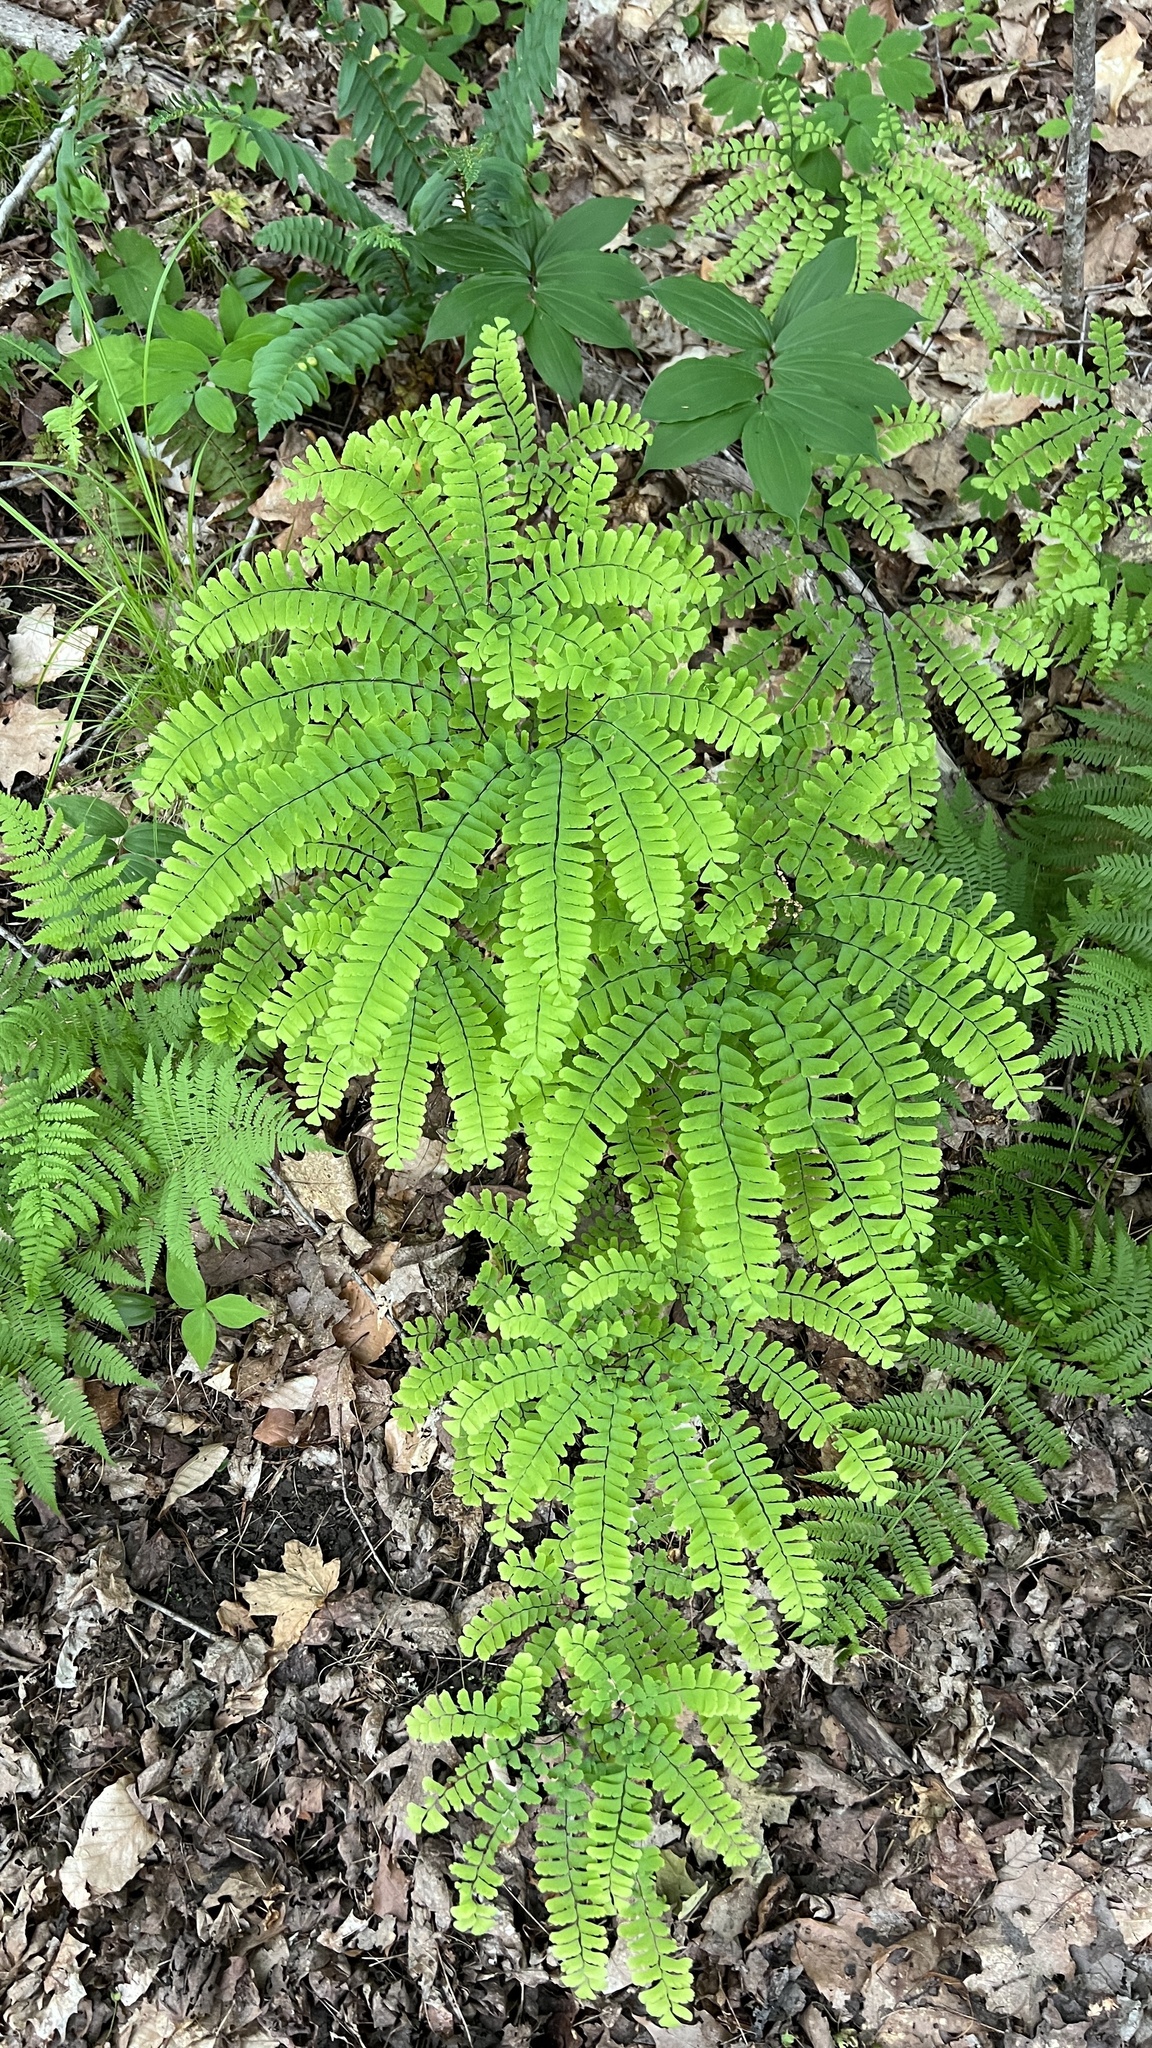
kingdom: Plantae
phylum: Tracheophyta
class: Polypodiopsida
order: Polypodiales
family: Pteridaceae
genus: Adiantum
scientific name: Adiantum pedatum
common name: Five-finger fern
